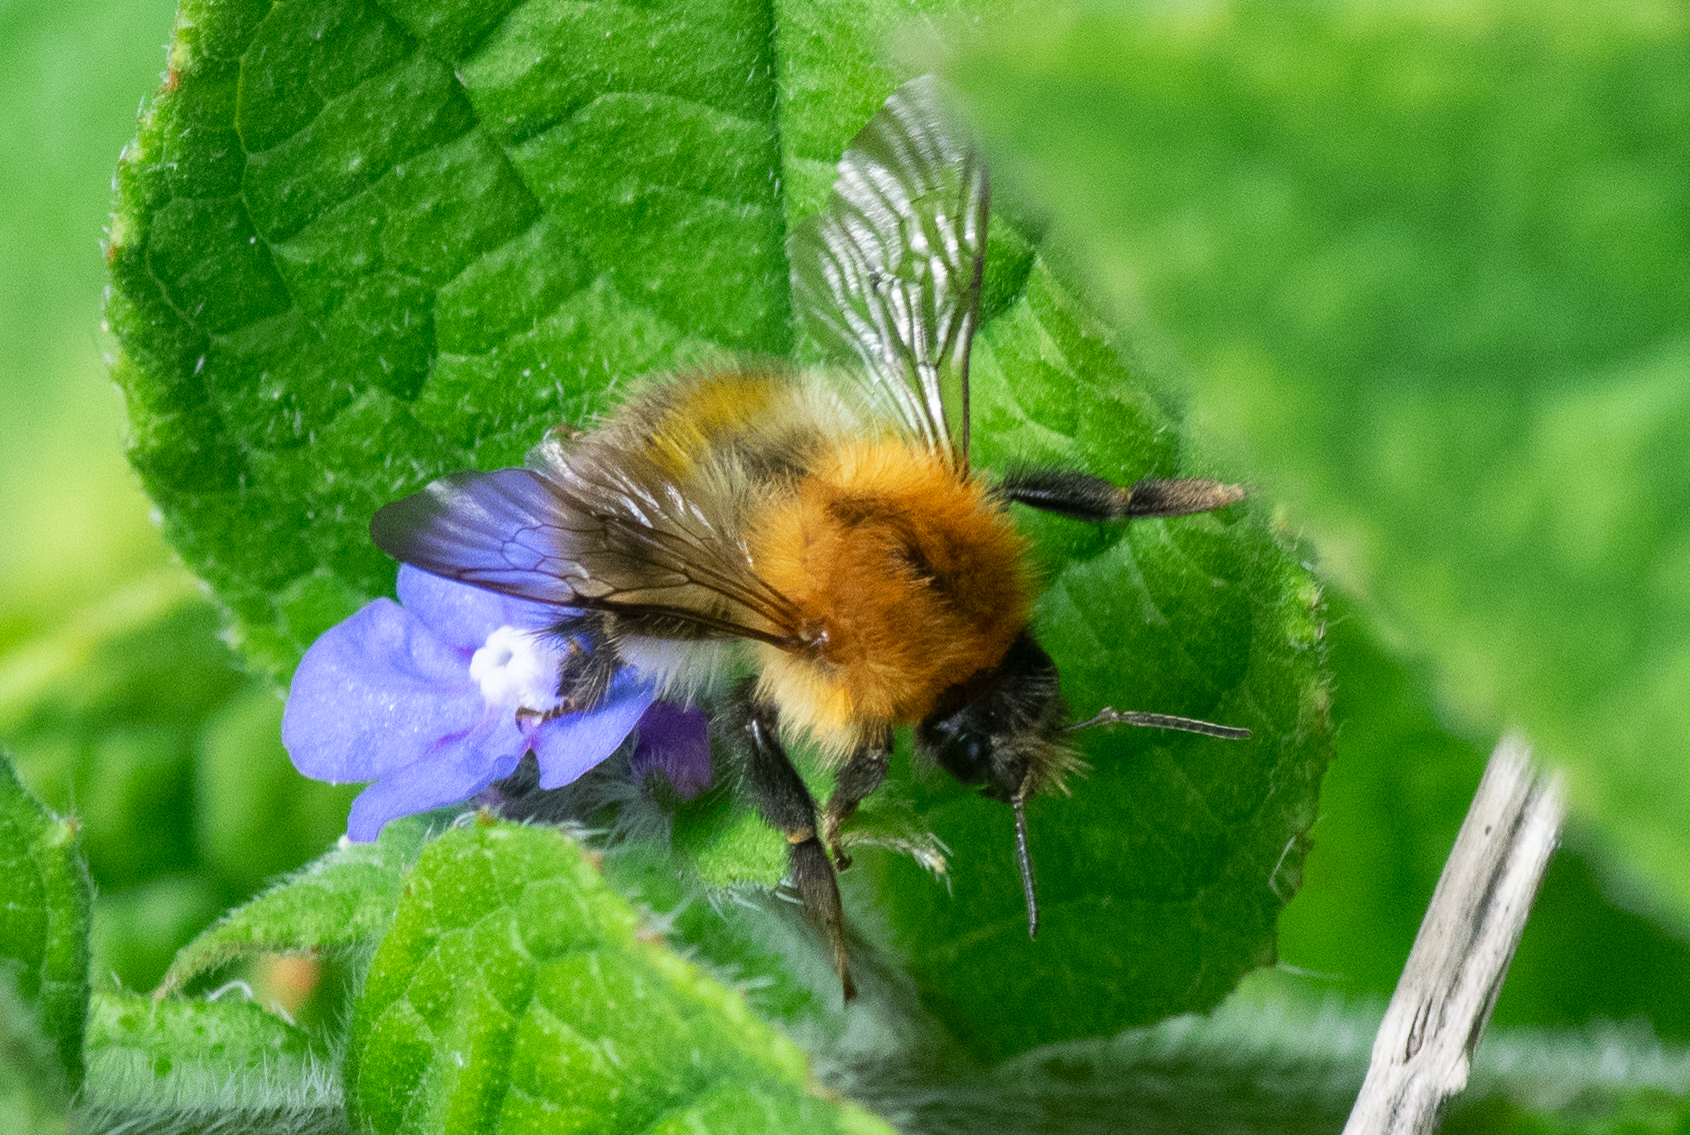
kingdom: Animalia
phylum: Arthropoda
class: Insecta
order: Hymenoptera
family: Apidae
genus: Bombus
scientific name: Bombus pascuorum
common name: Common carder bee
